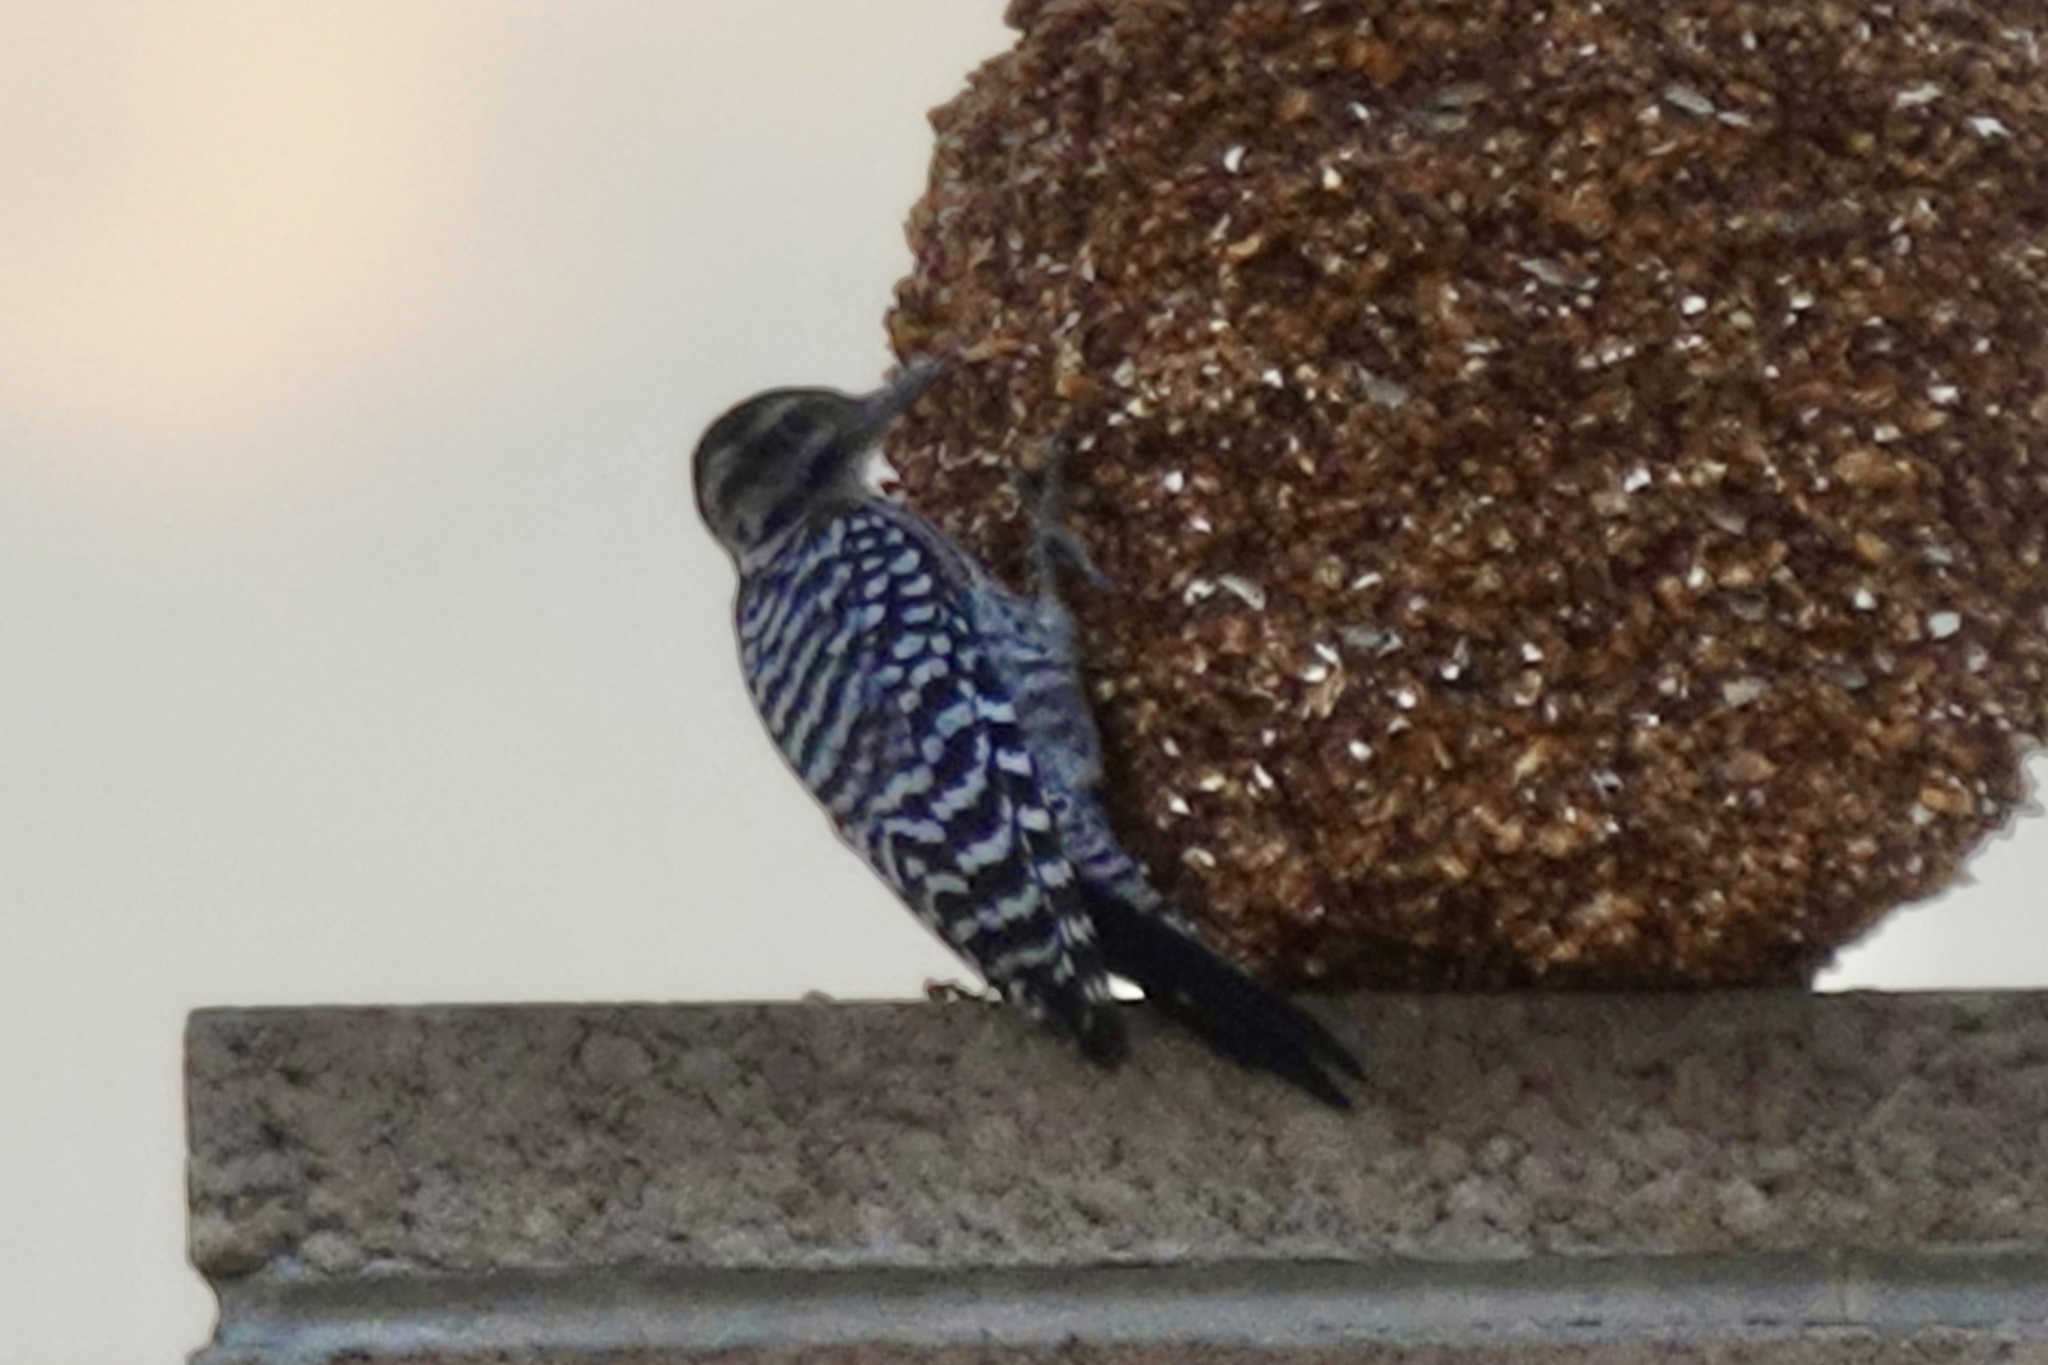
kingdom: Animalia
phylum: Chordata
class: Aves
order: Piciformes
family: Picidae
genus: Dryobates
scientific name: Dryobates scalaris
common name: Ladder-backed woodpecker
